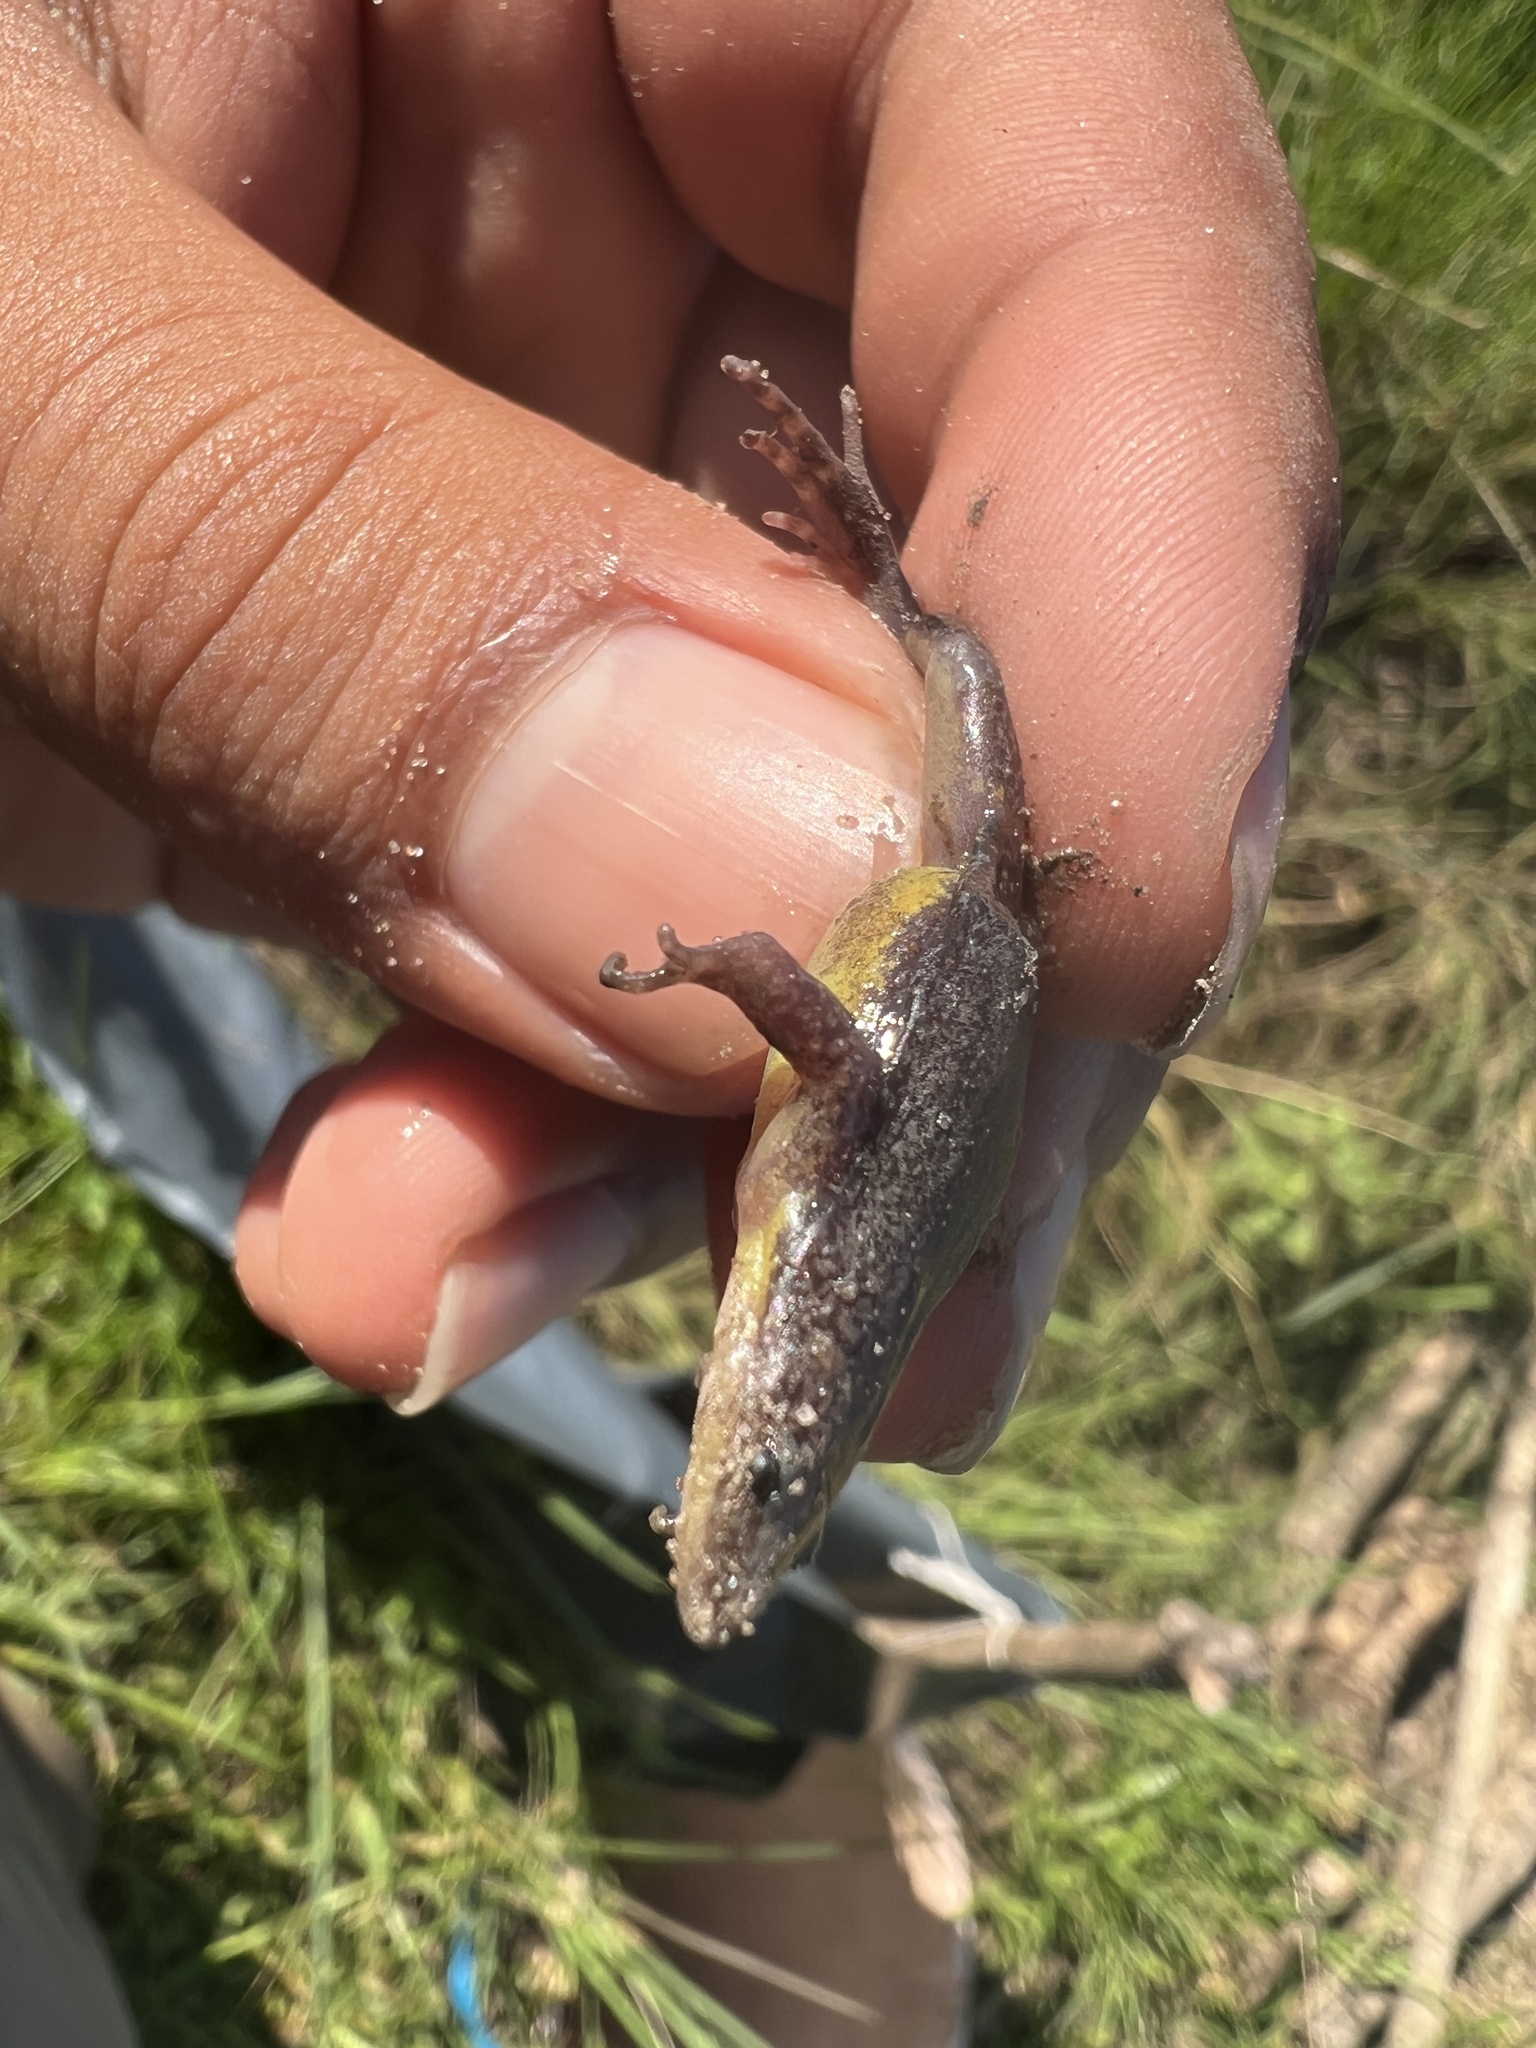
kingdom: Animalia
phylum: Chordata
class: Amphibia
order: Anura
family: Microhylidae
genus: Elachistocleis
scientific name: Elachistocleis bicolor
